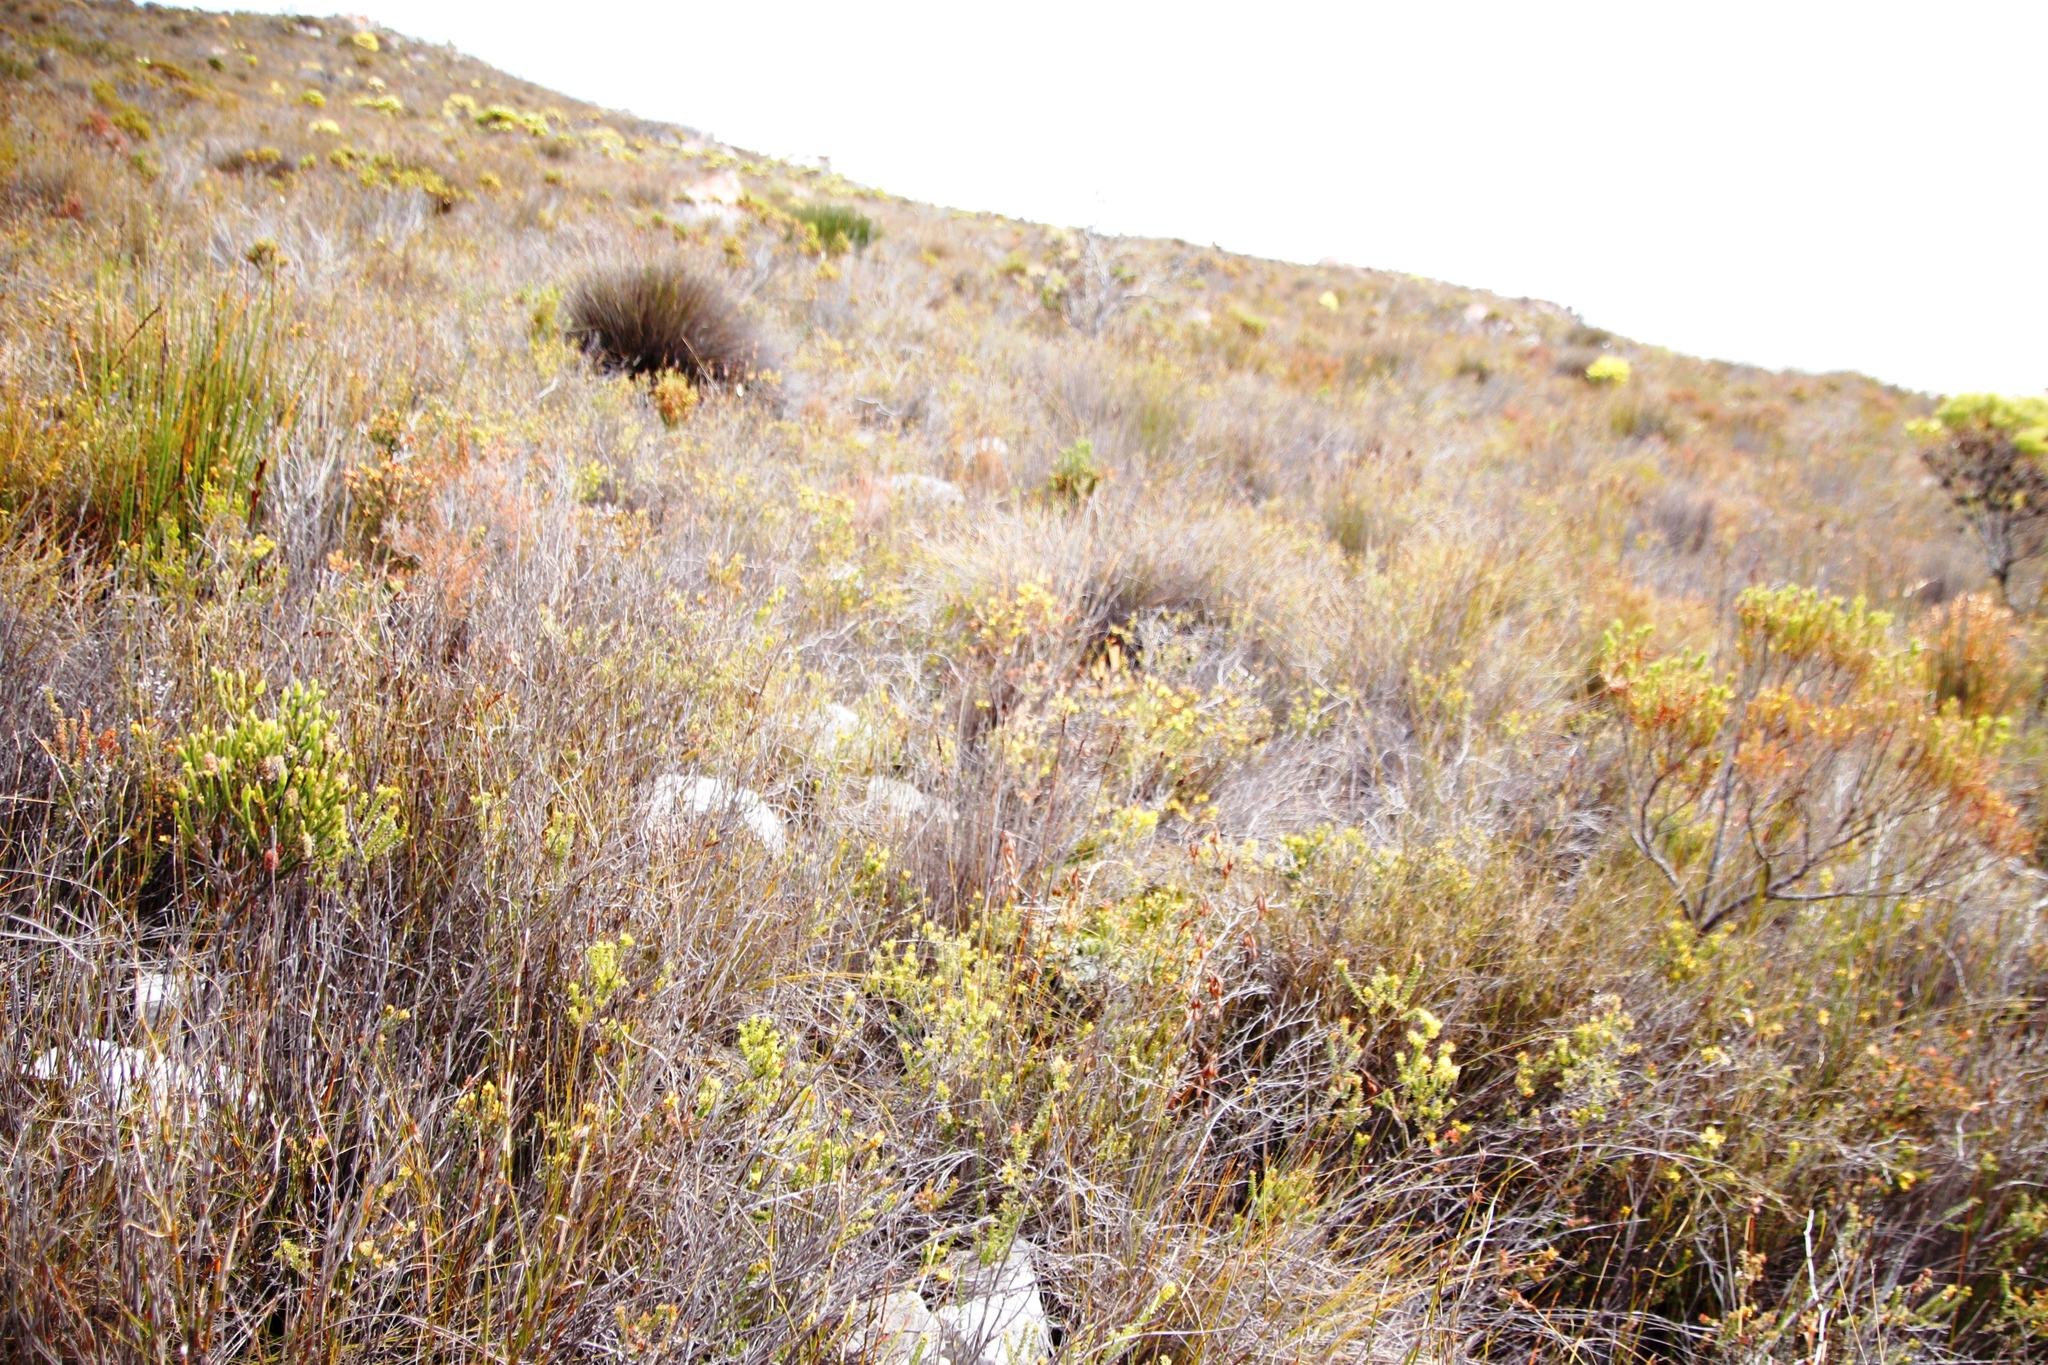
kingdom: Plantae
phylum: Tracheophyta
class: Magnoliopsida
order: Ericales
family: Ericaceae
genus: Erica
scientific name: Erica sessiliflora
